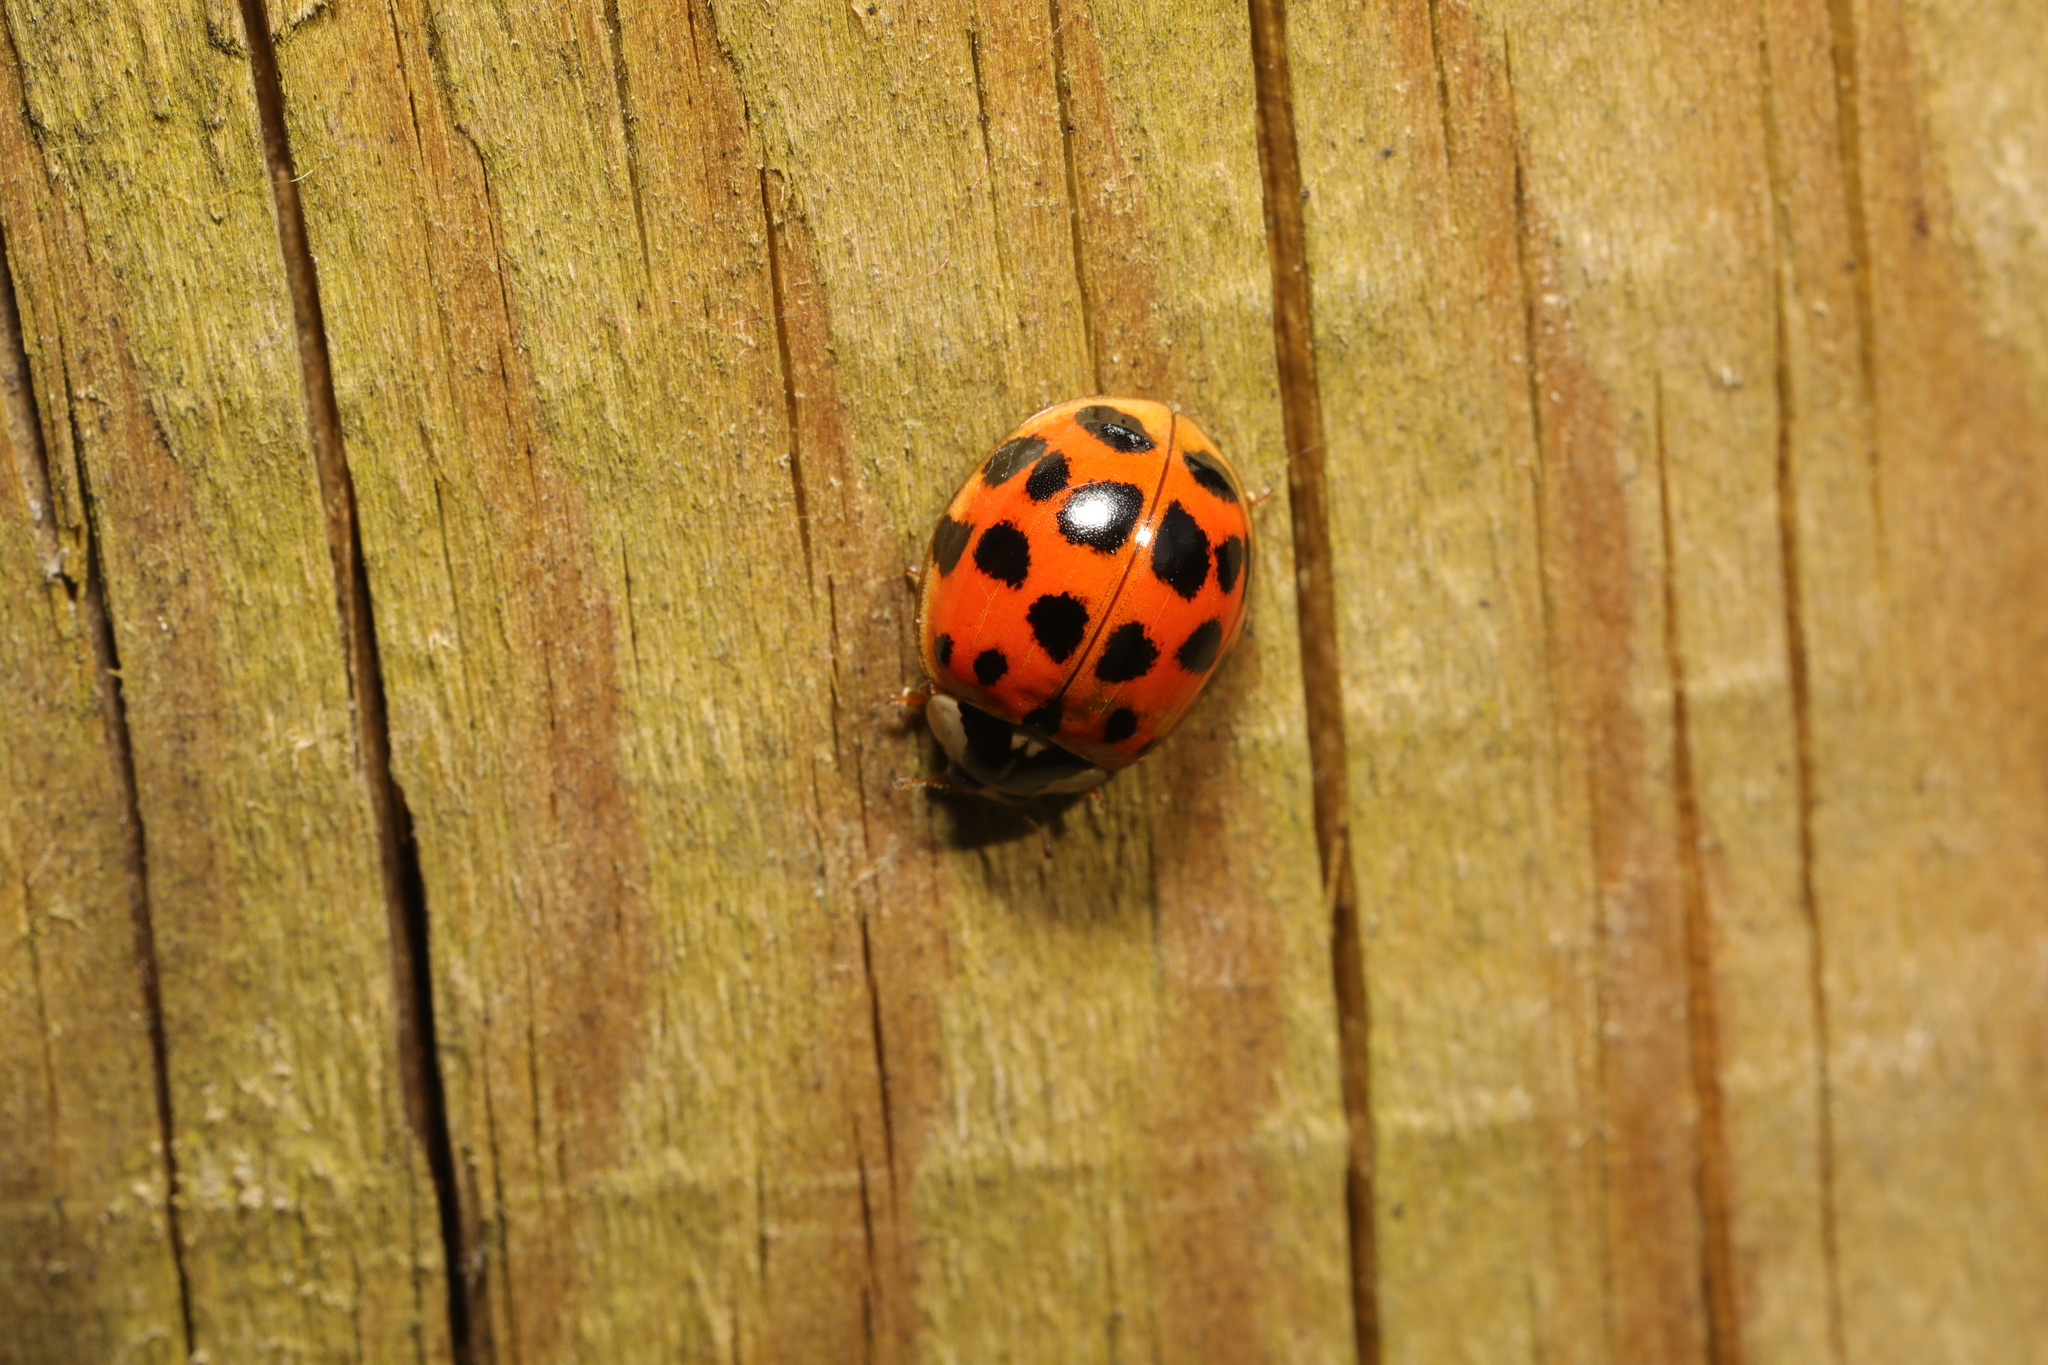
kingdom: Animalia
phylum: Arthropoda
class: Insecta
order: Coleoptera
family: Coccinellidae
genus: Harmonia
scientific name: Harmonia axyridis
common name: Harlequin ladybird
